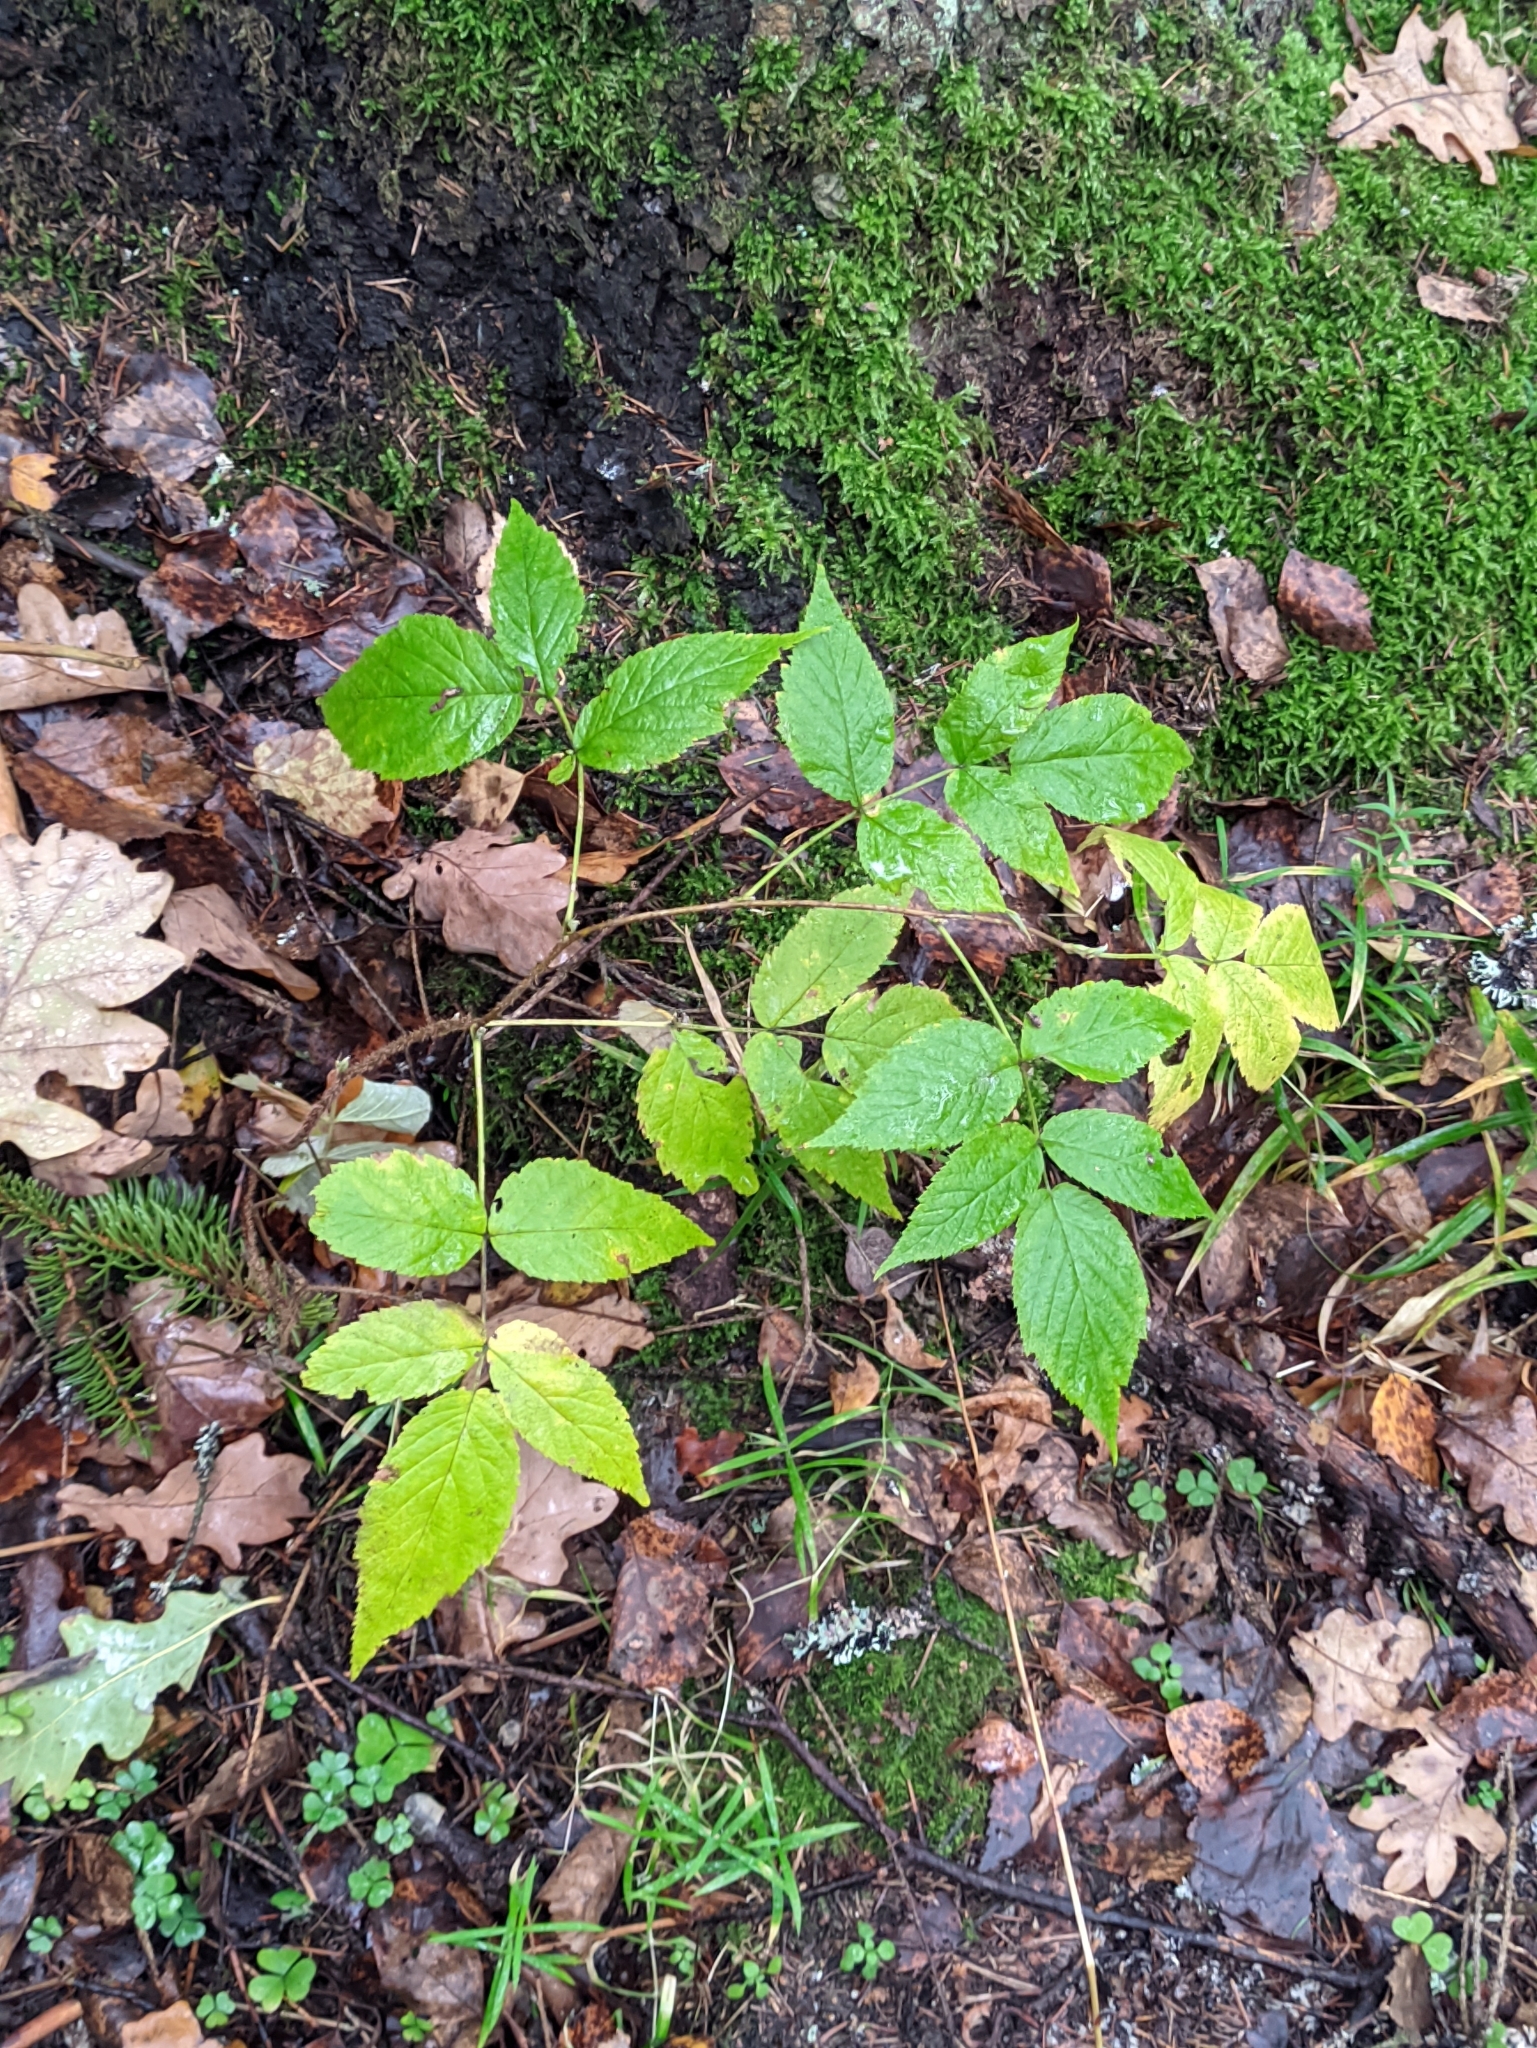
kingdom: Plantae
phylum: Tracheophyta
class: Magnoliopsida
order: Rosales
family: Rosaceae
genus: Rubus
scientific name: Rubus idaeus
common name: Raspberry
